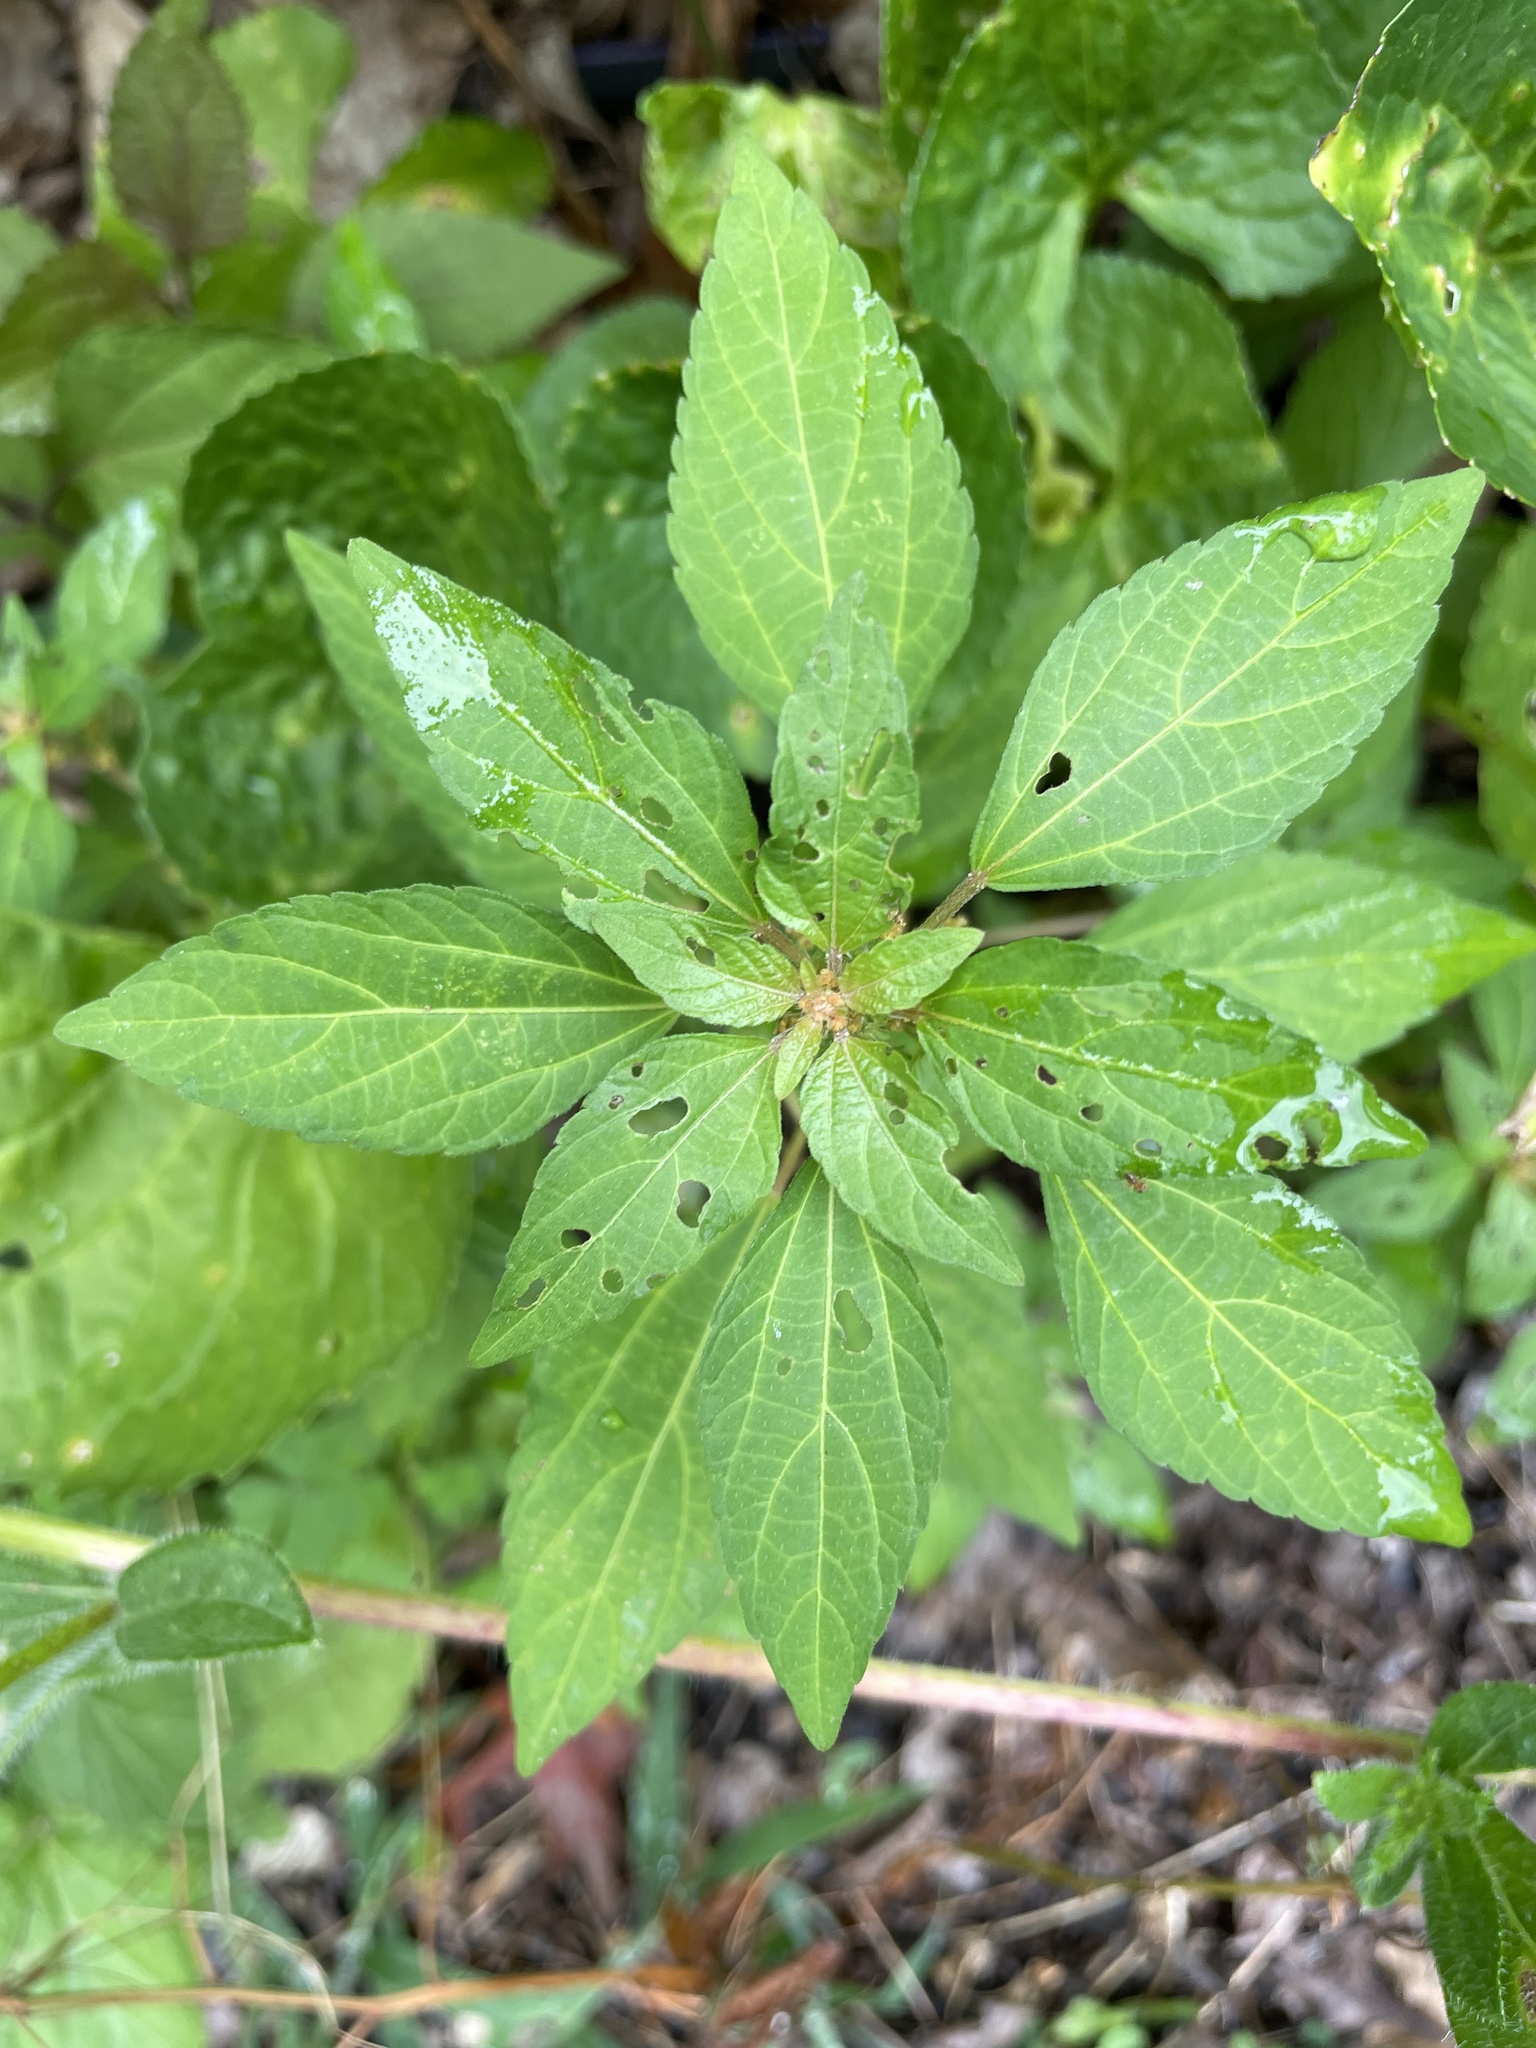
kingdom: Plantae
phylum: Tracheophyta
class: Magnoliopsida
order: Malpighiales
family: Euphorbiaceae
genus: Acalypha
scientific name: Acalypha rhomboidea
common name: Rhombic copperleaf
